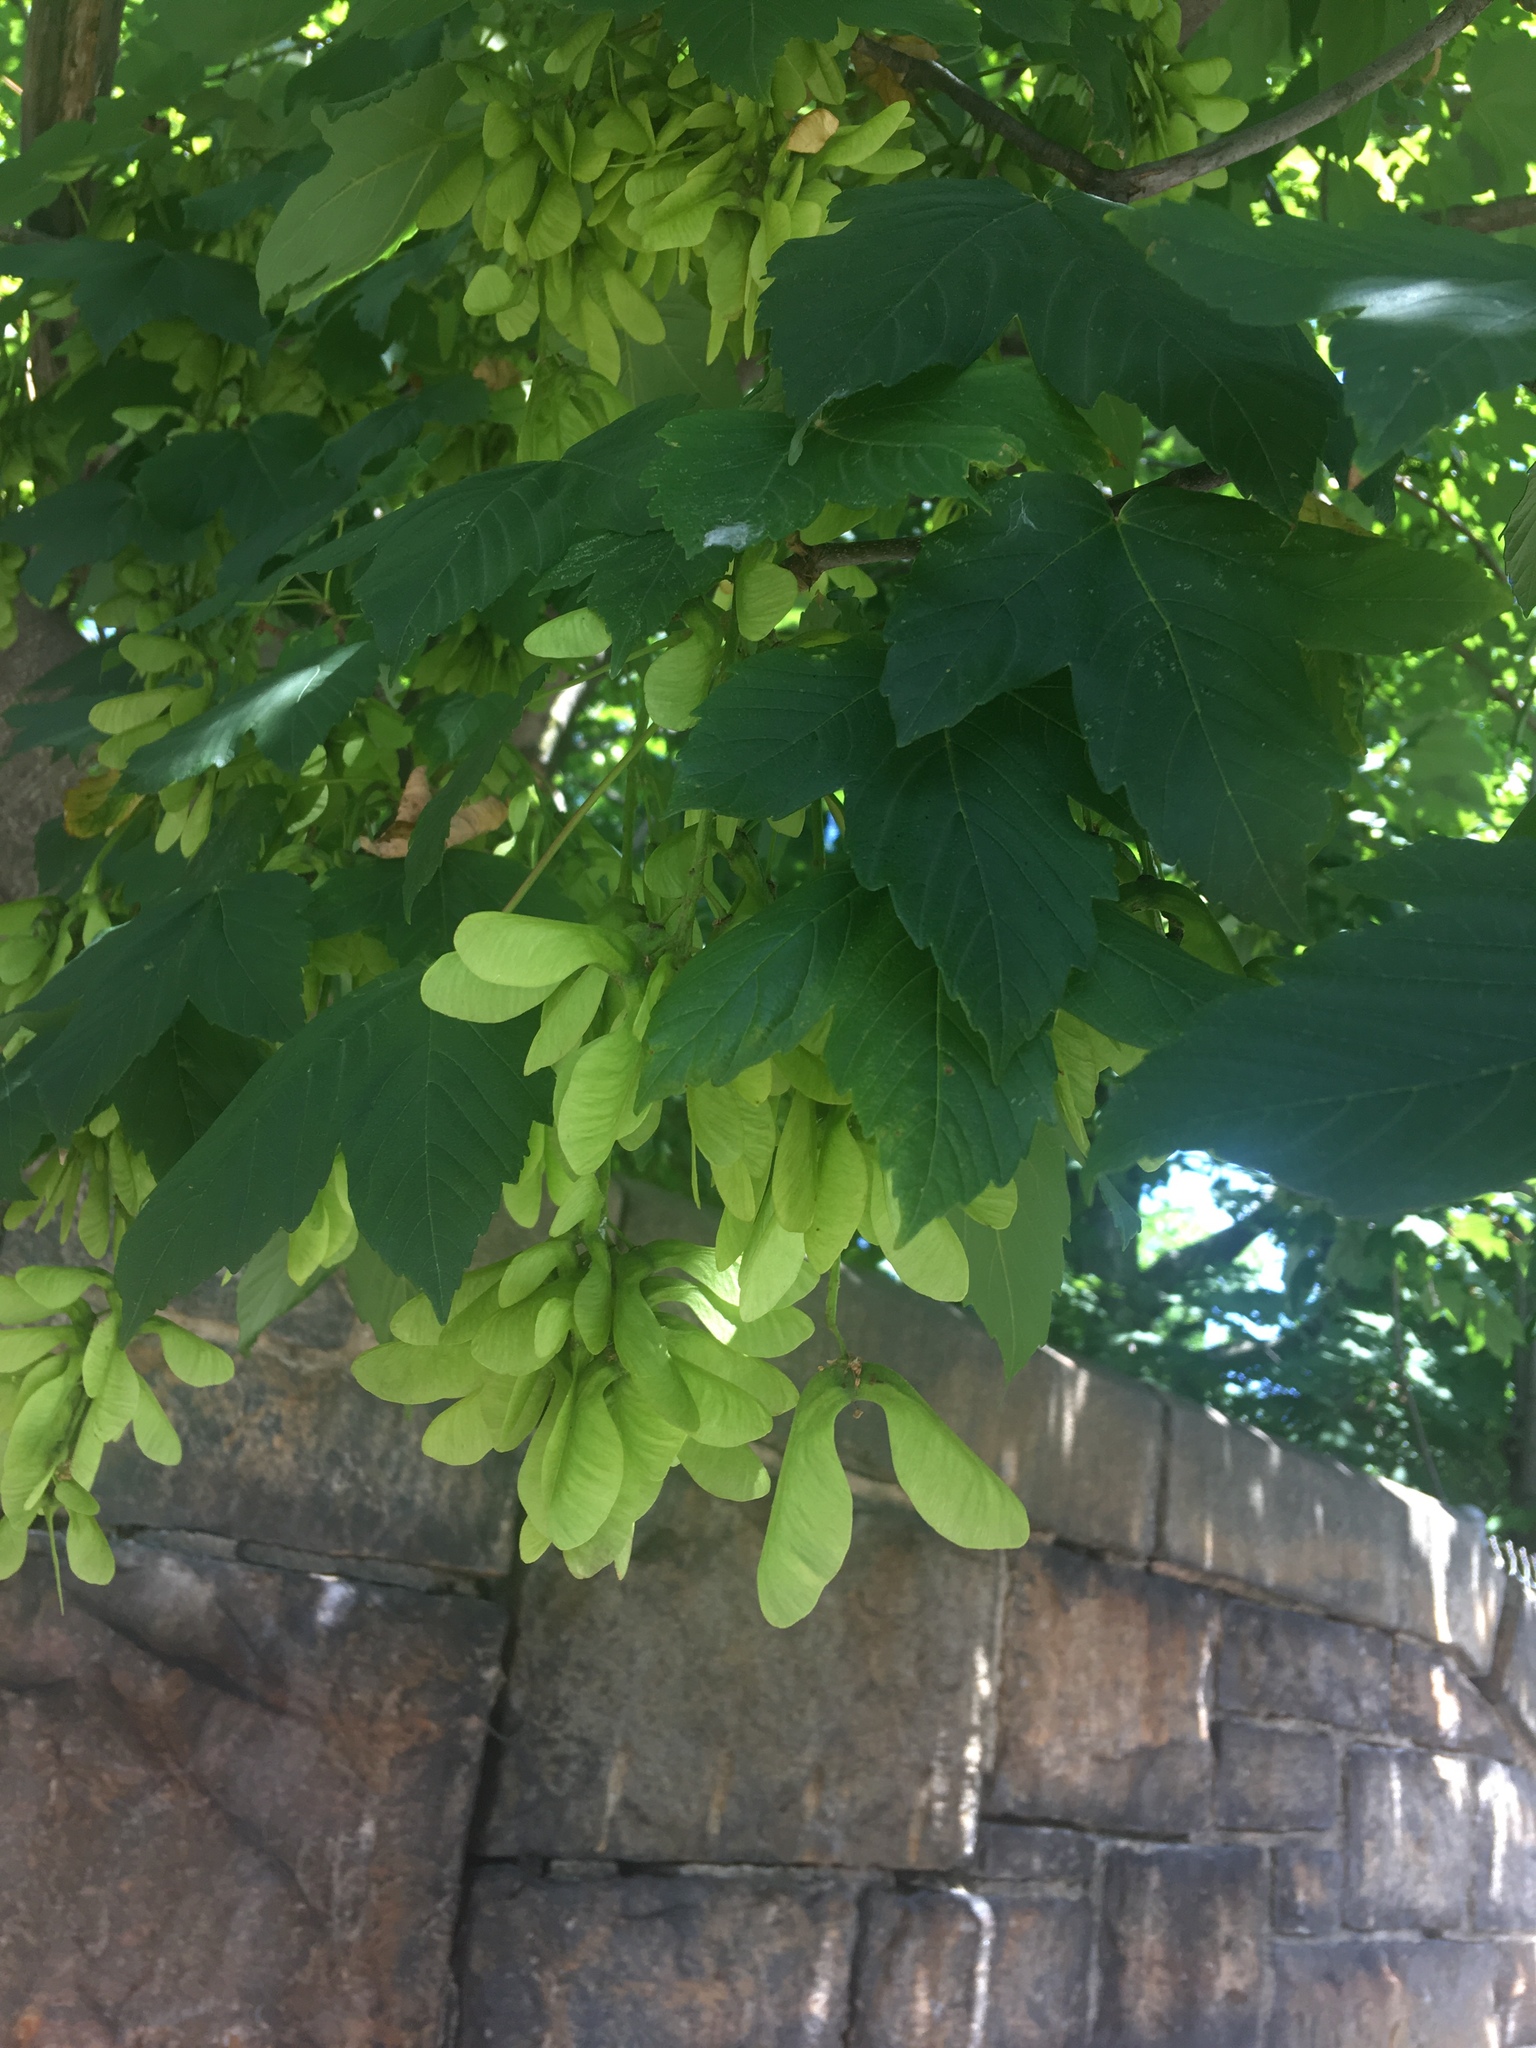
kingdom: Plantae
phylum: Tracheophyta
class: Magnoliopsida
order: Sapindales
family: Sapindaceae
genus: Acer
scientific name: Acer pseudoplatanus
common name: Sycamore
